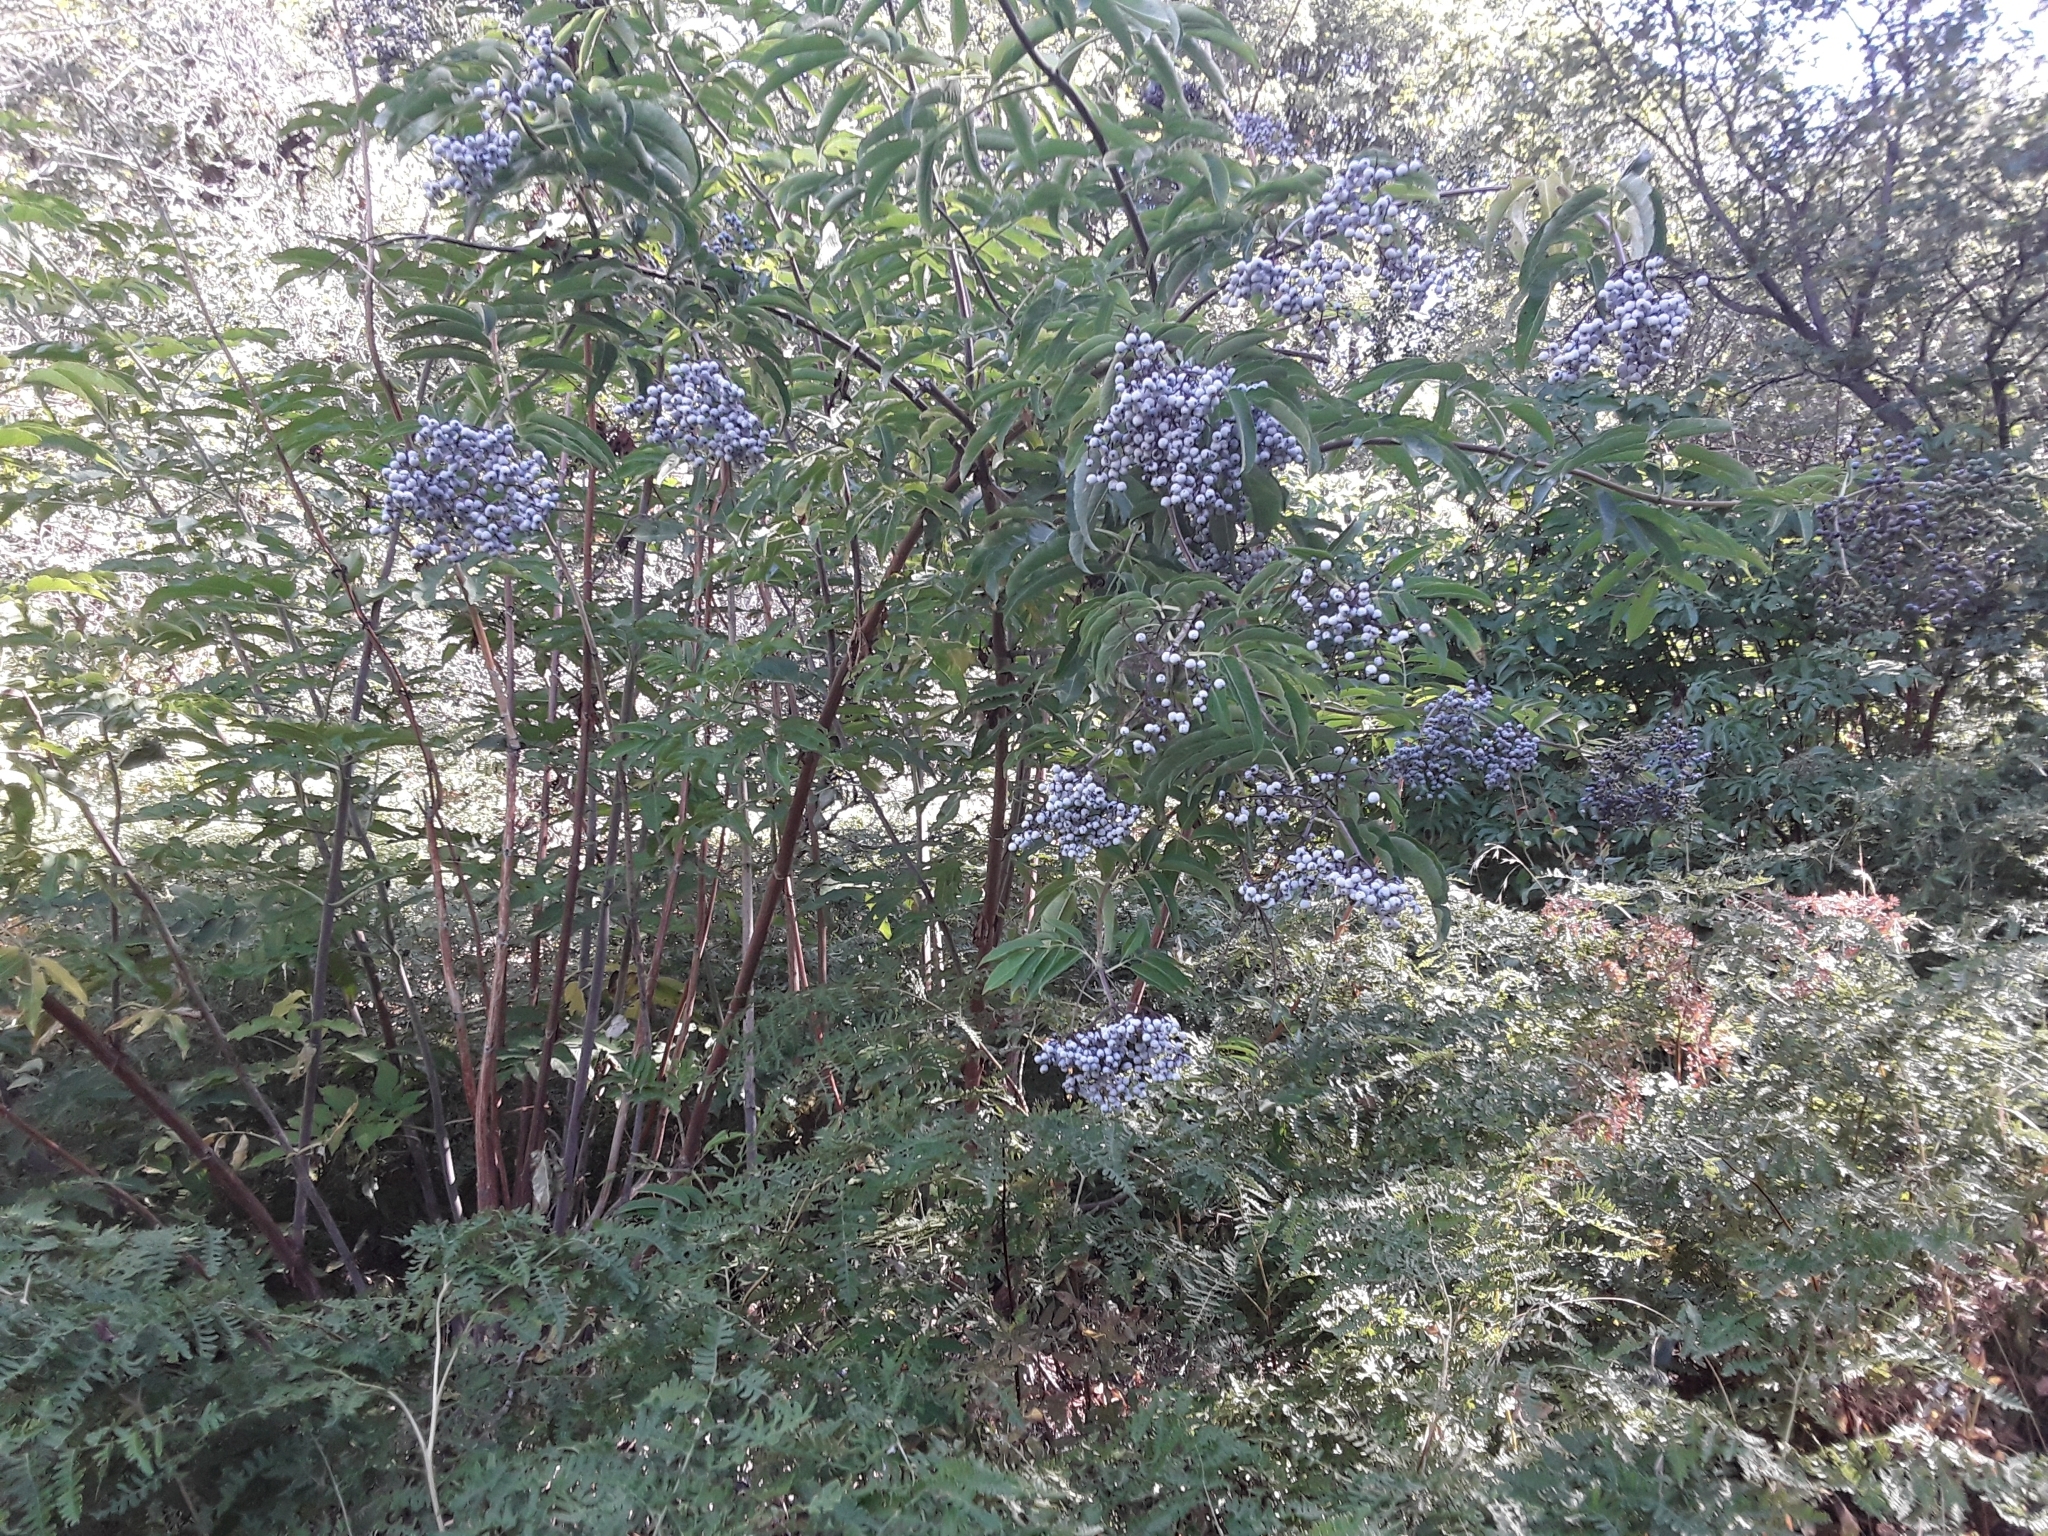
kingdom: Plantae
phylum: Tracheophyta
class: Magnoliopsida
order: Dipsacales
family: Viburnaceae
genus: Sambucus
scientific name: Sambucus cerulea
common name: Blue elder
